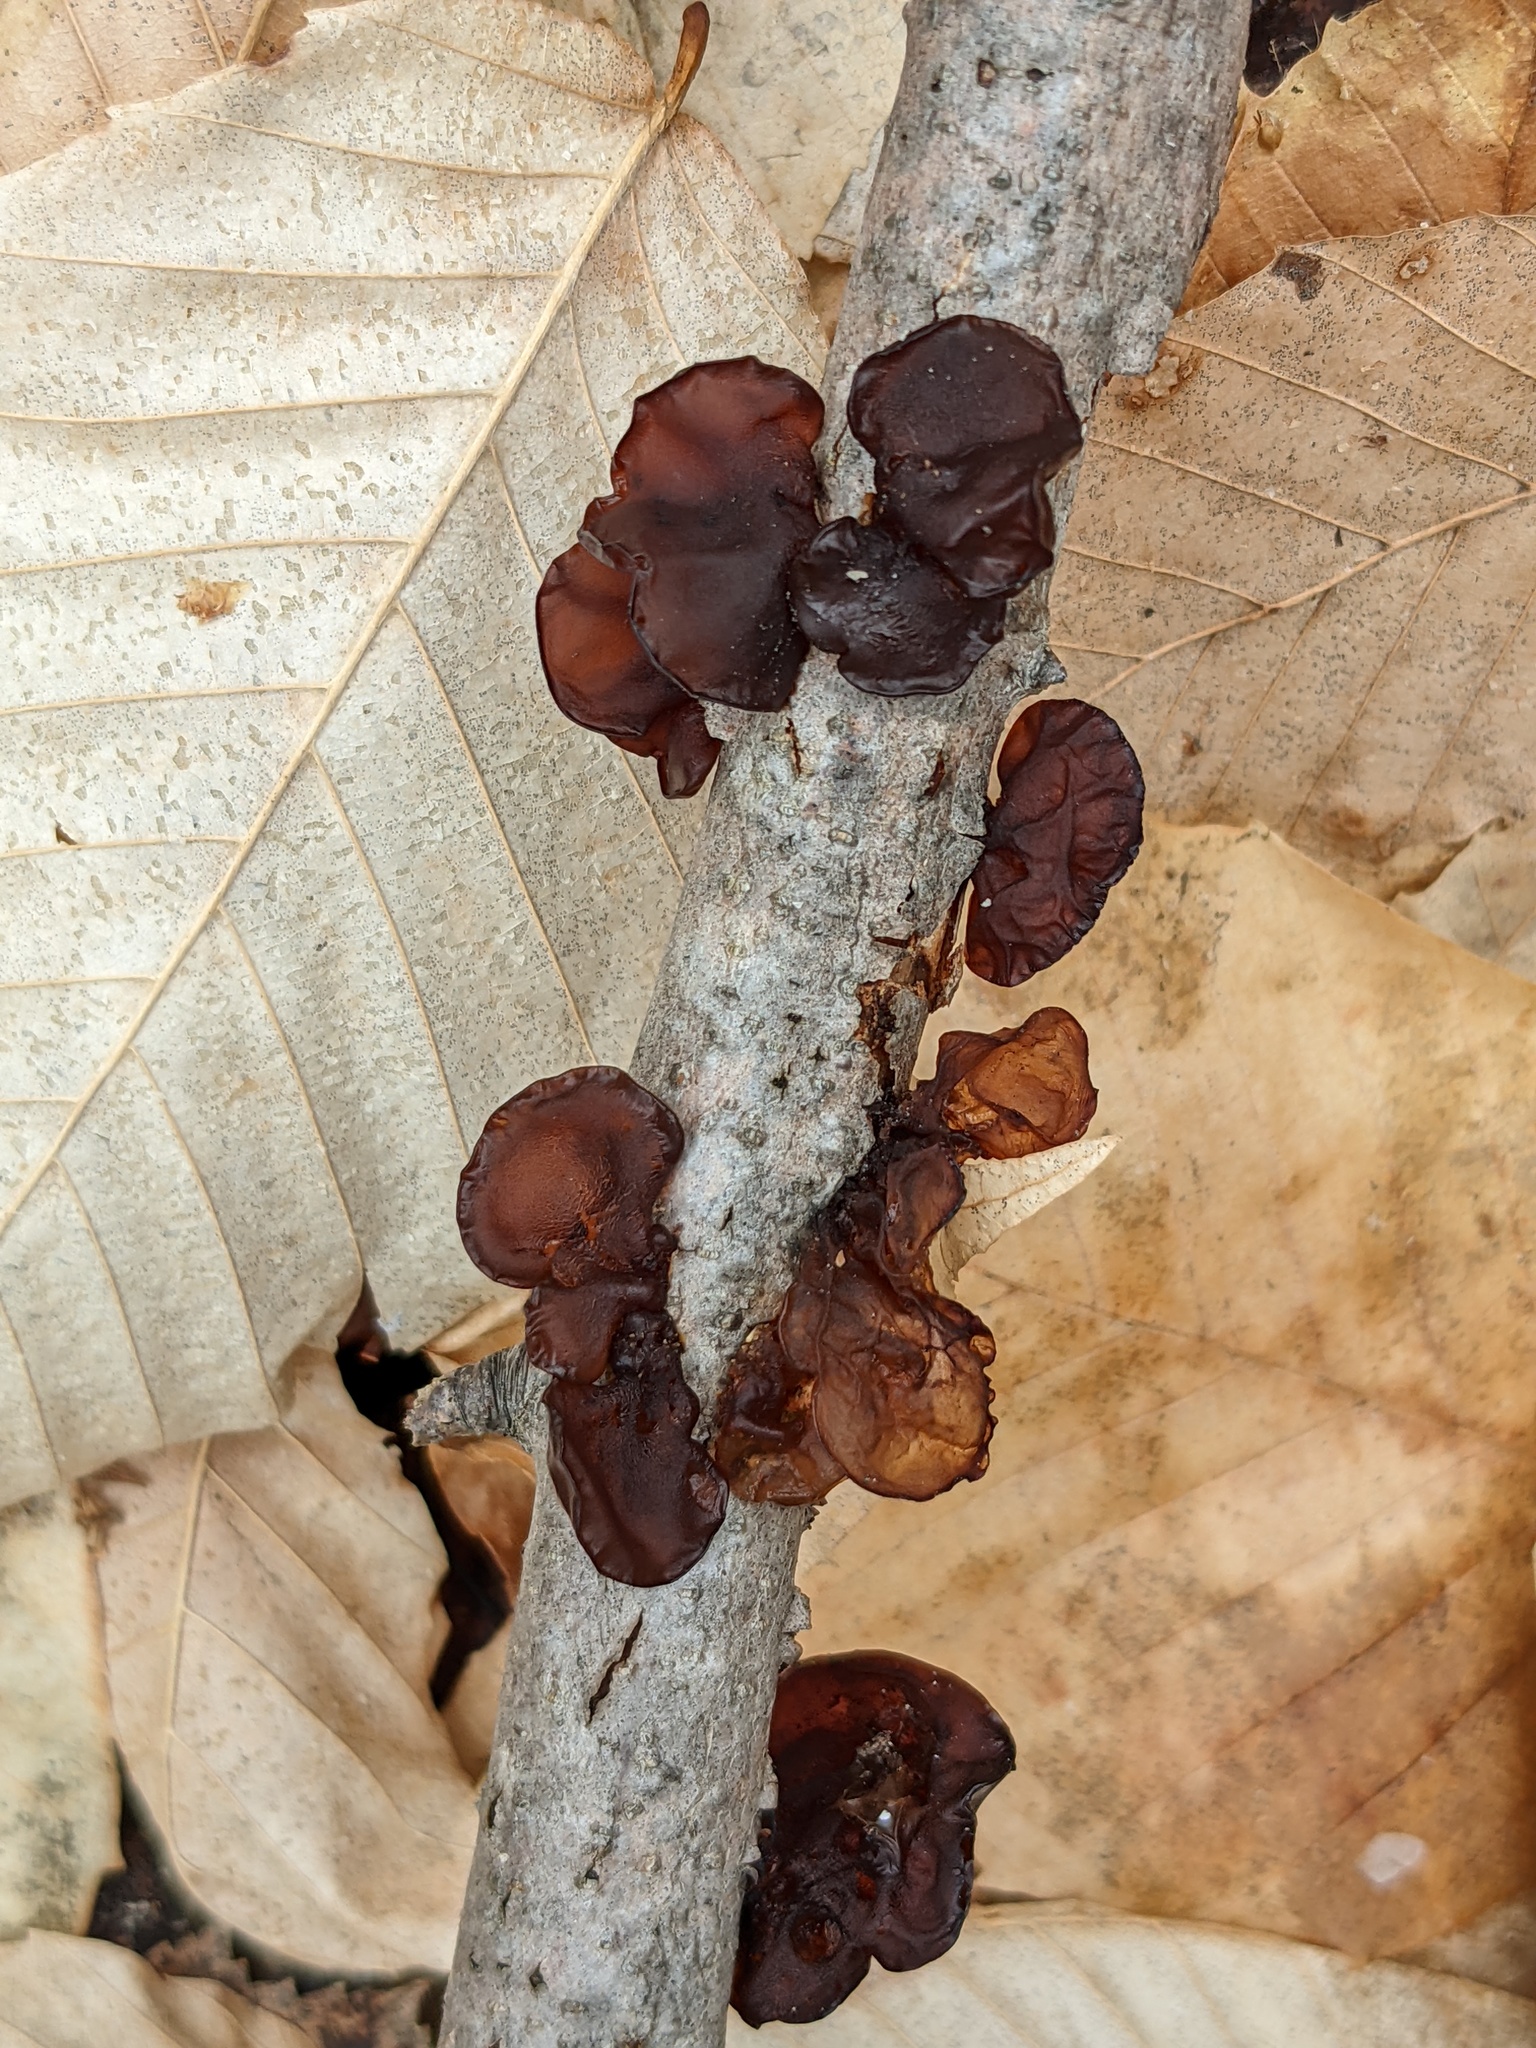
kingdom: Fungi
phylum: Basidiomycota
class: Agaricomycetes
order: Auriculariales
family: Auriculariaceae
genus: Exidia
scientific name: Exidia
